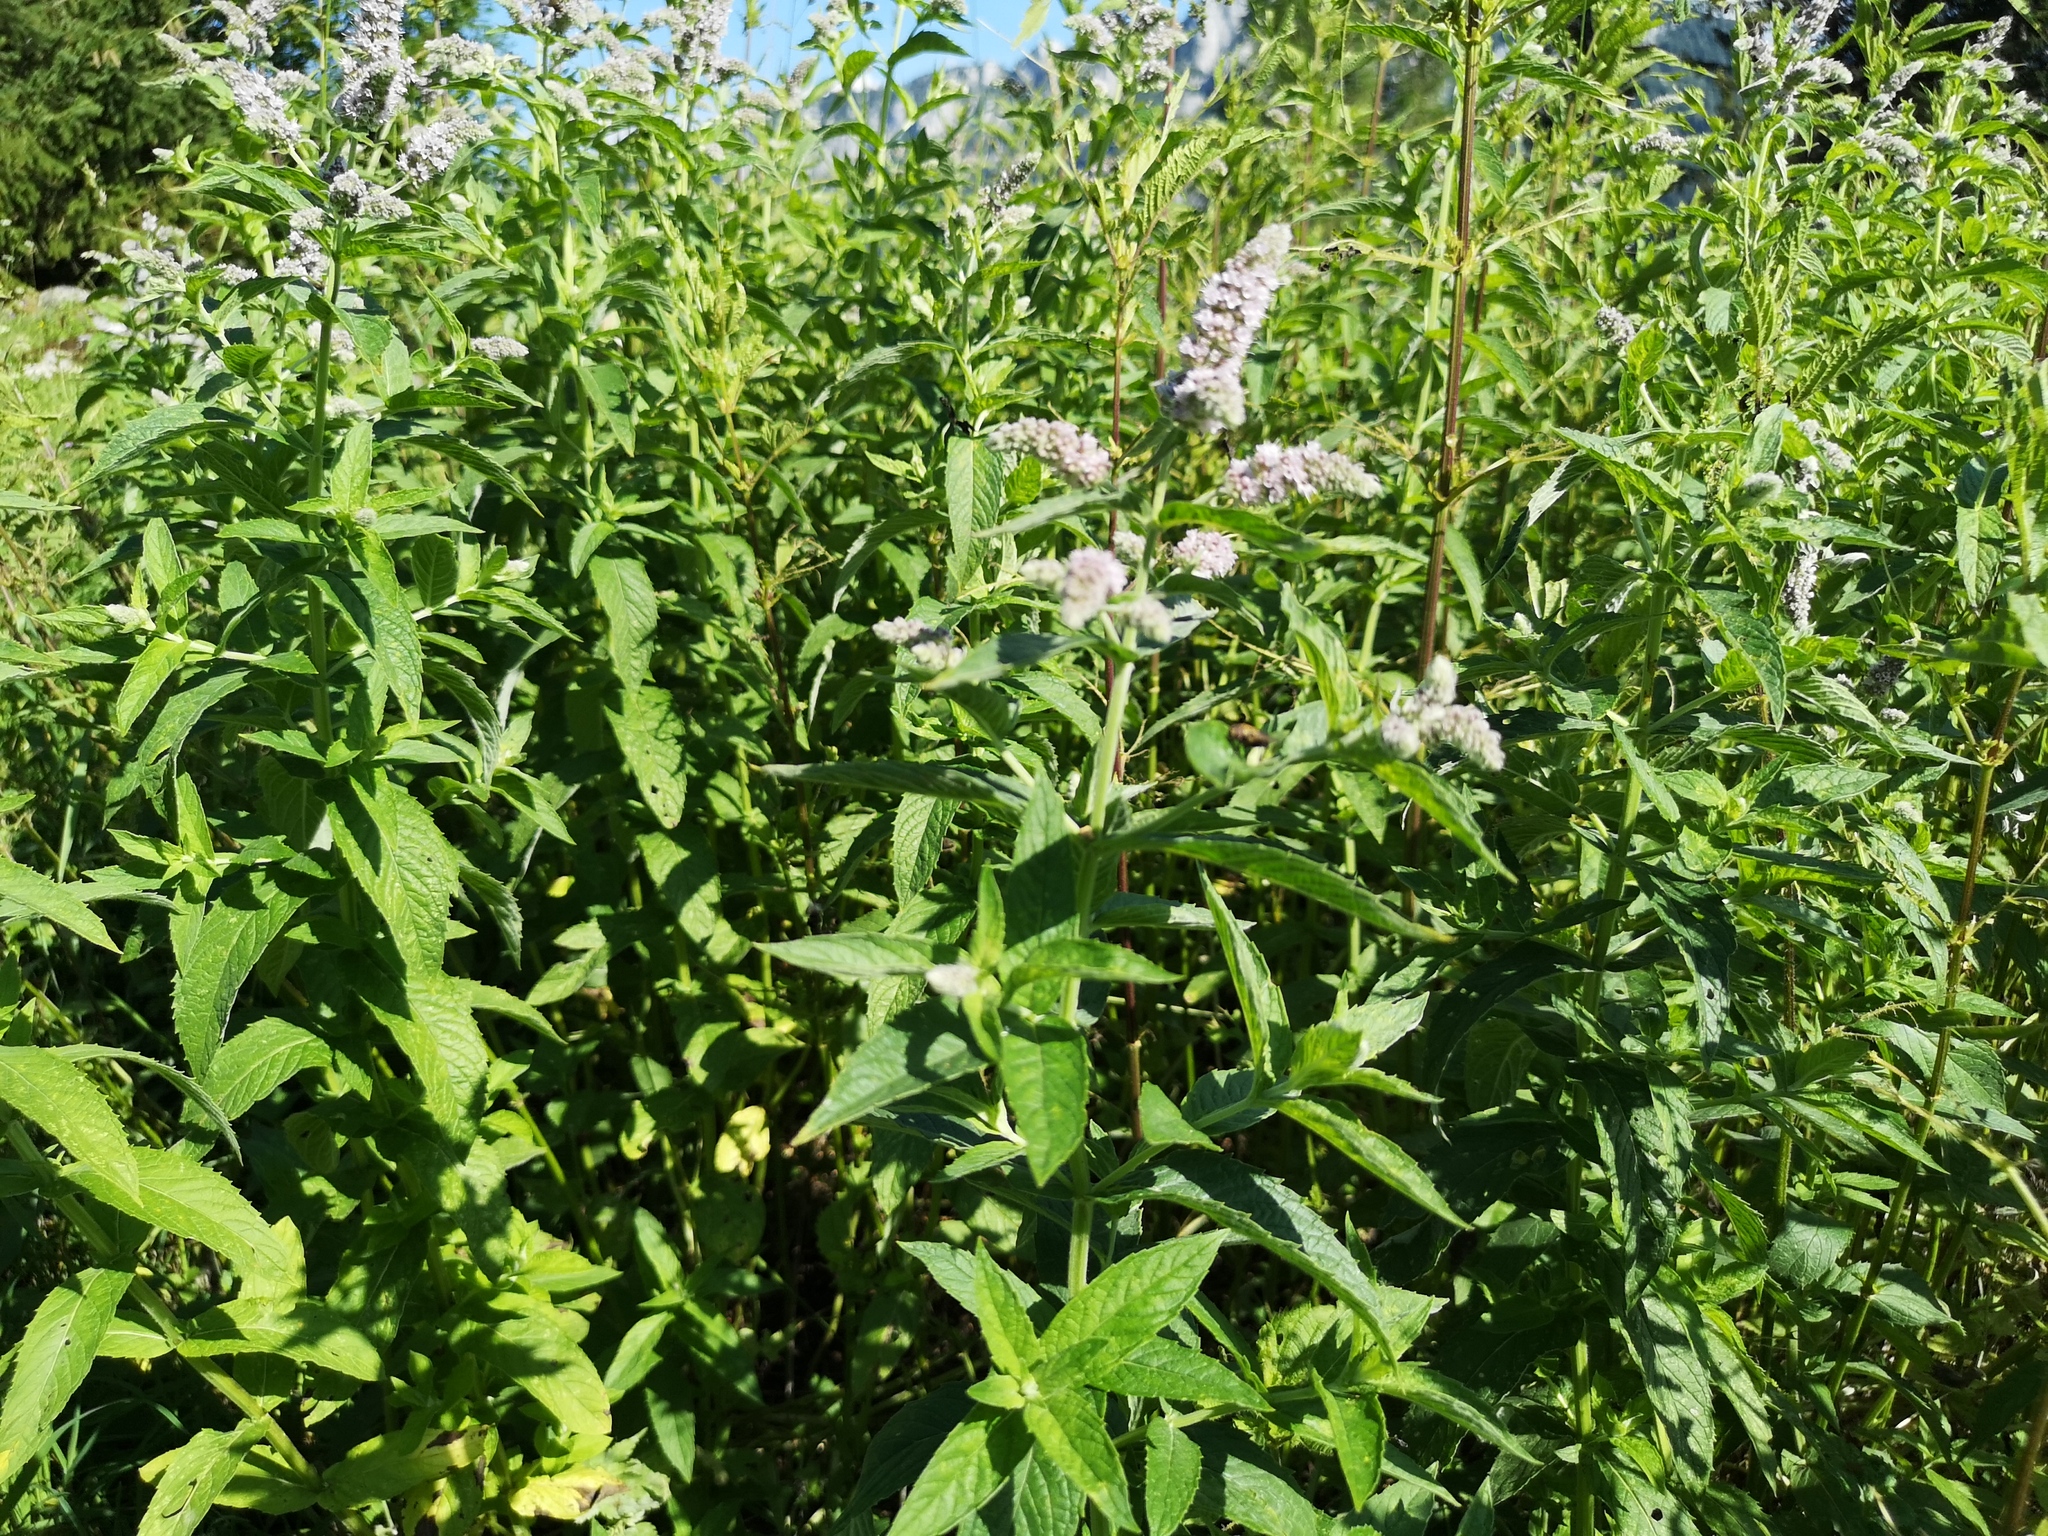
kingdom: Plantae
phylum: Tracheophyta
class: Magnoliopsida
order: Lamiales
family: Lamiaceae
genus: Mentha
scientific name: Mentha longifolia
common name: Horse mint
